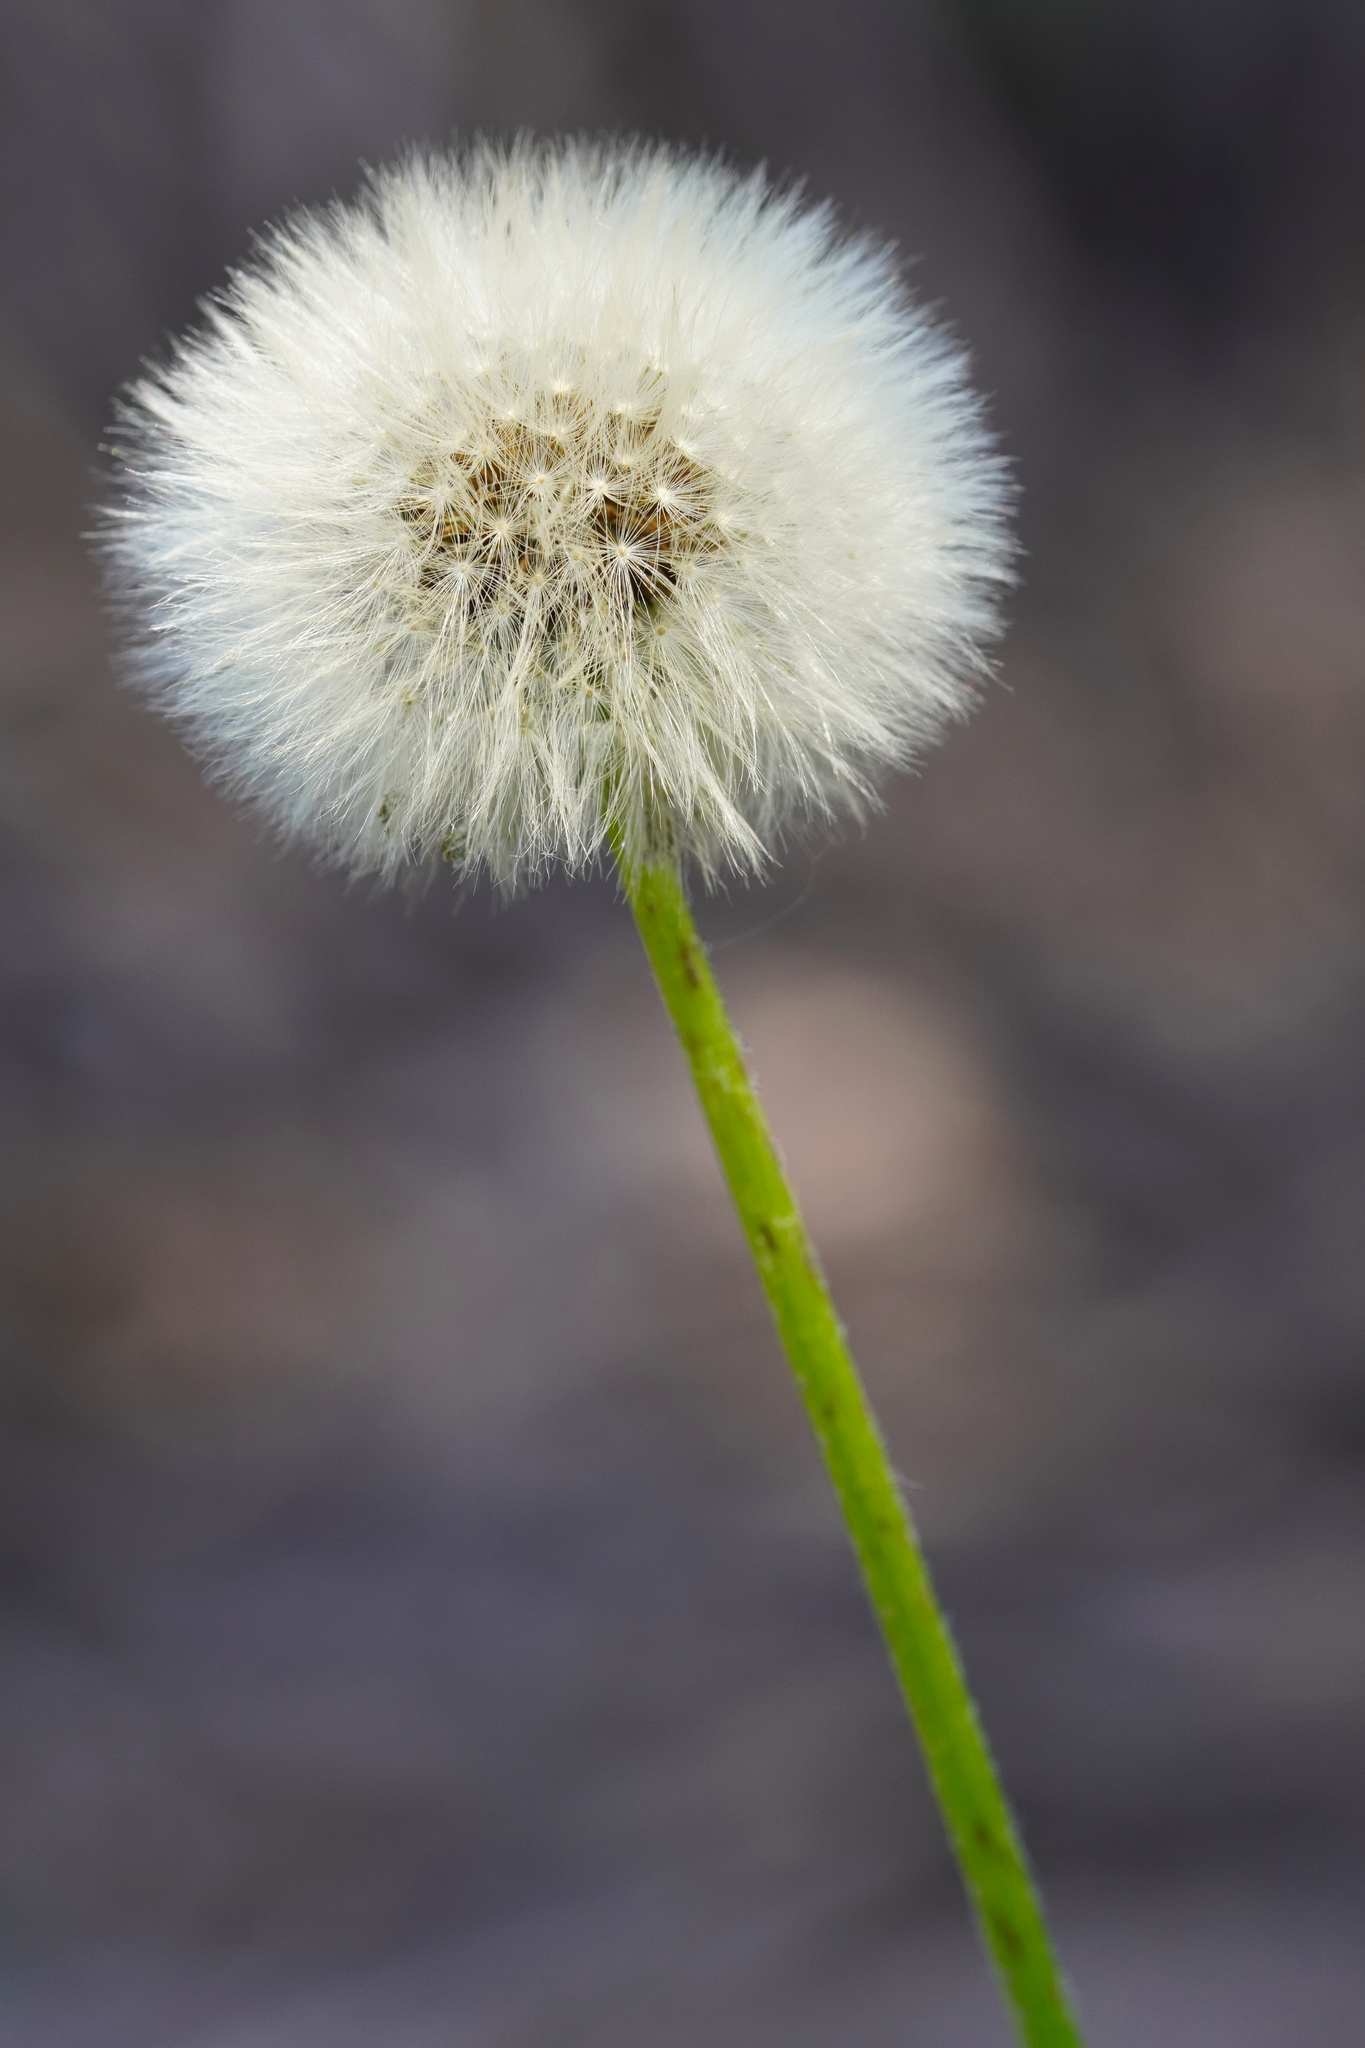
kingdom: Plantae
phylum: Tracheophyta
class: Magnoliopsida
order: Asterales
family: Asteraceae
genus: Taraxacum
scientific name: Taraxacum officinale
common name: Common dandelion
